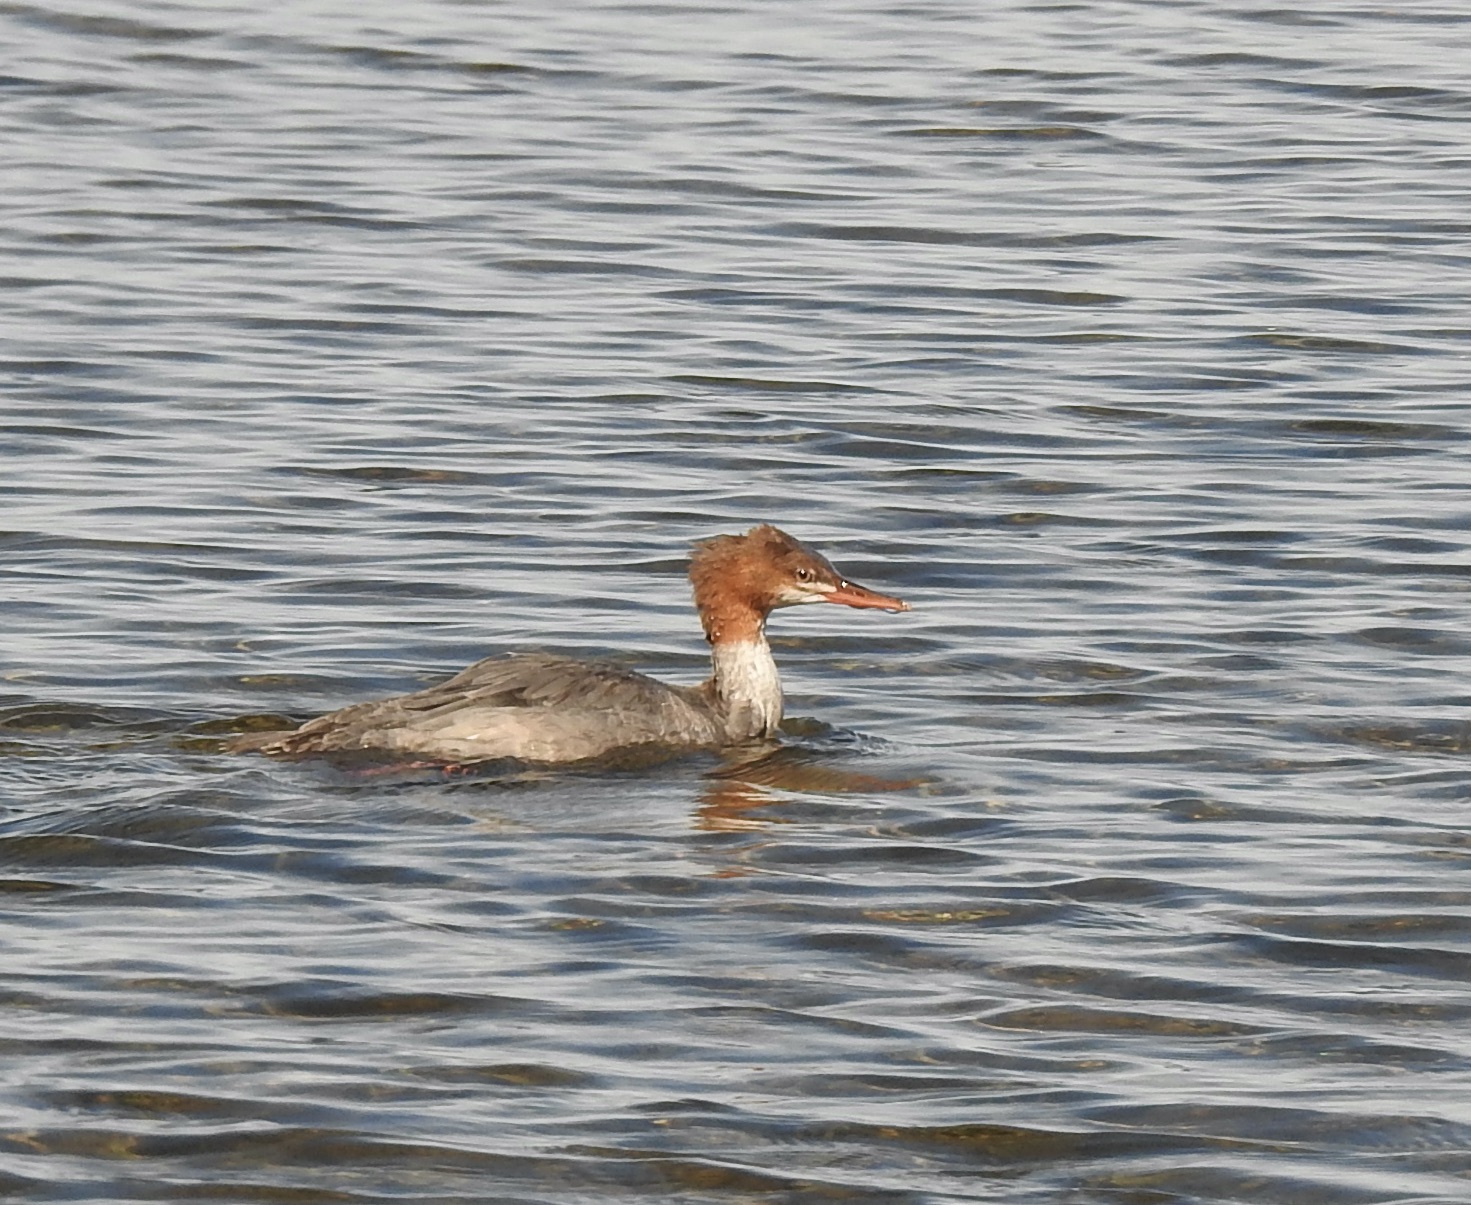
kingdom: Animalia
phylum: Chordata
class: Aves
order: Anseriformes
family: Anatidae
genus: Mergus
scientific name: Mergus merganser
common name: Common merganser
